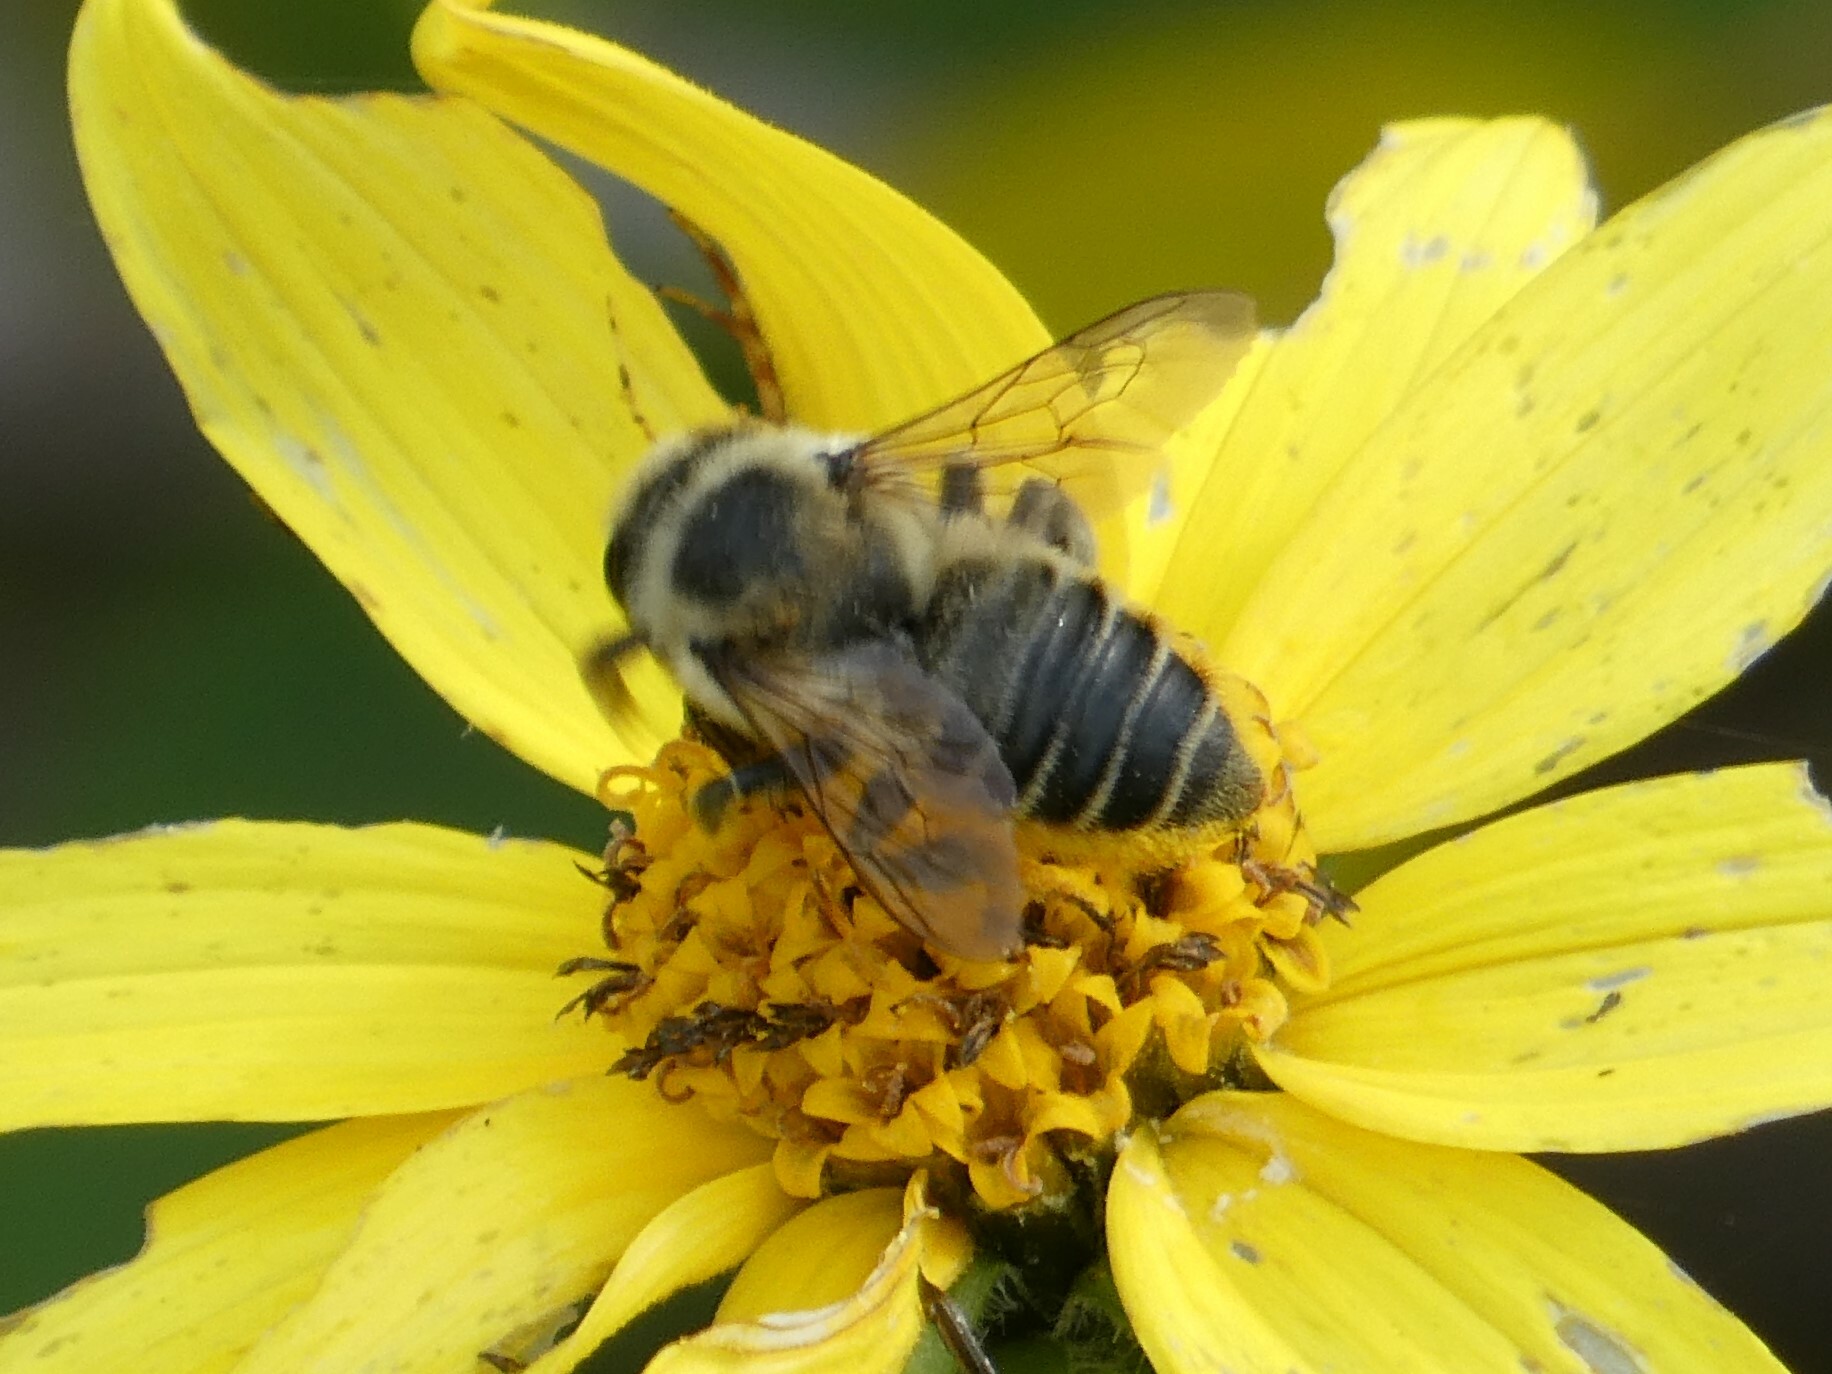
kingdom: Animalia
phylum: Arthropoda
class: Insecta
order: Hymenoptera
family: Megachilidae
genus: Megachile
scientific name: Megachile latimanus
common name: Leafcutting bee
